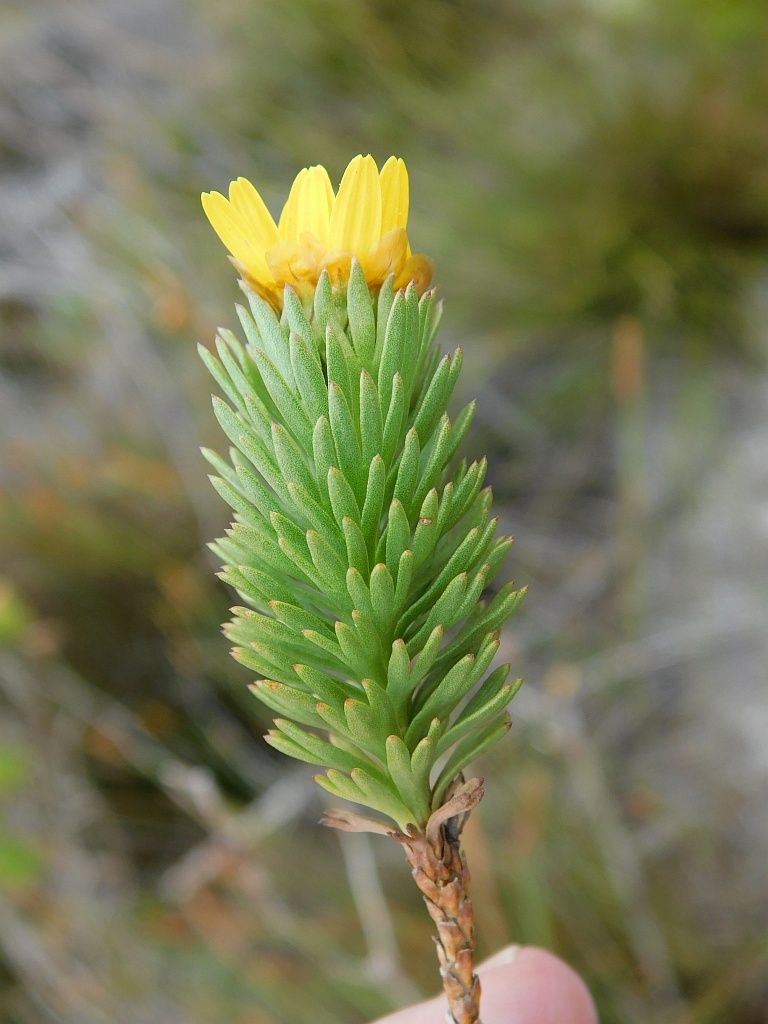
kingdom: Plantae
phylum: Tracheophyta
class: Magnoliopsida
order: Asterales
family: Asteraceae
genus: Ursinia
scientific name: Ursinia caledonica
